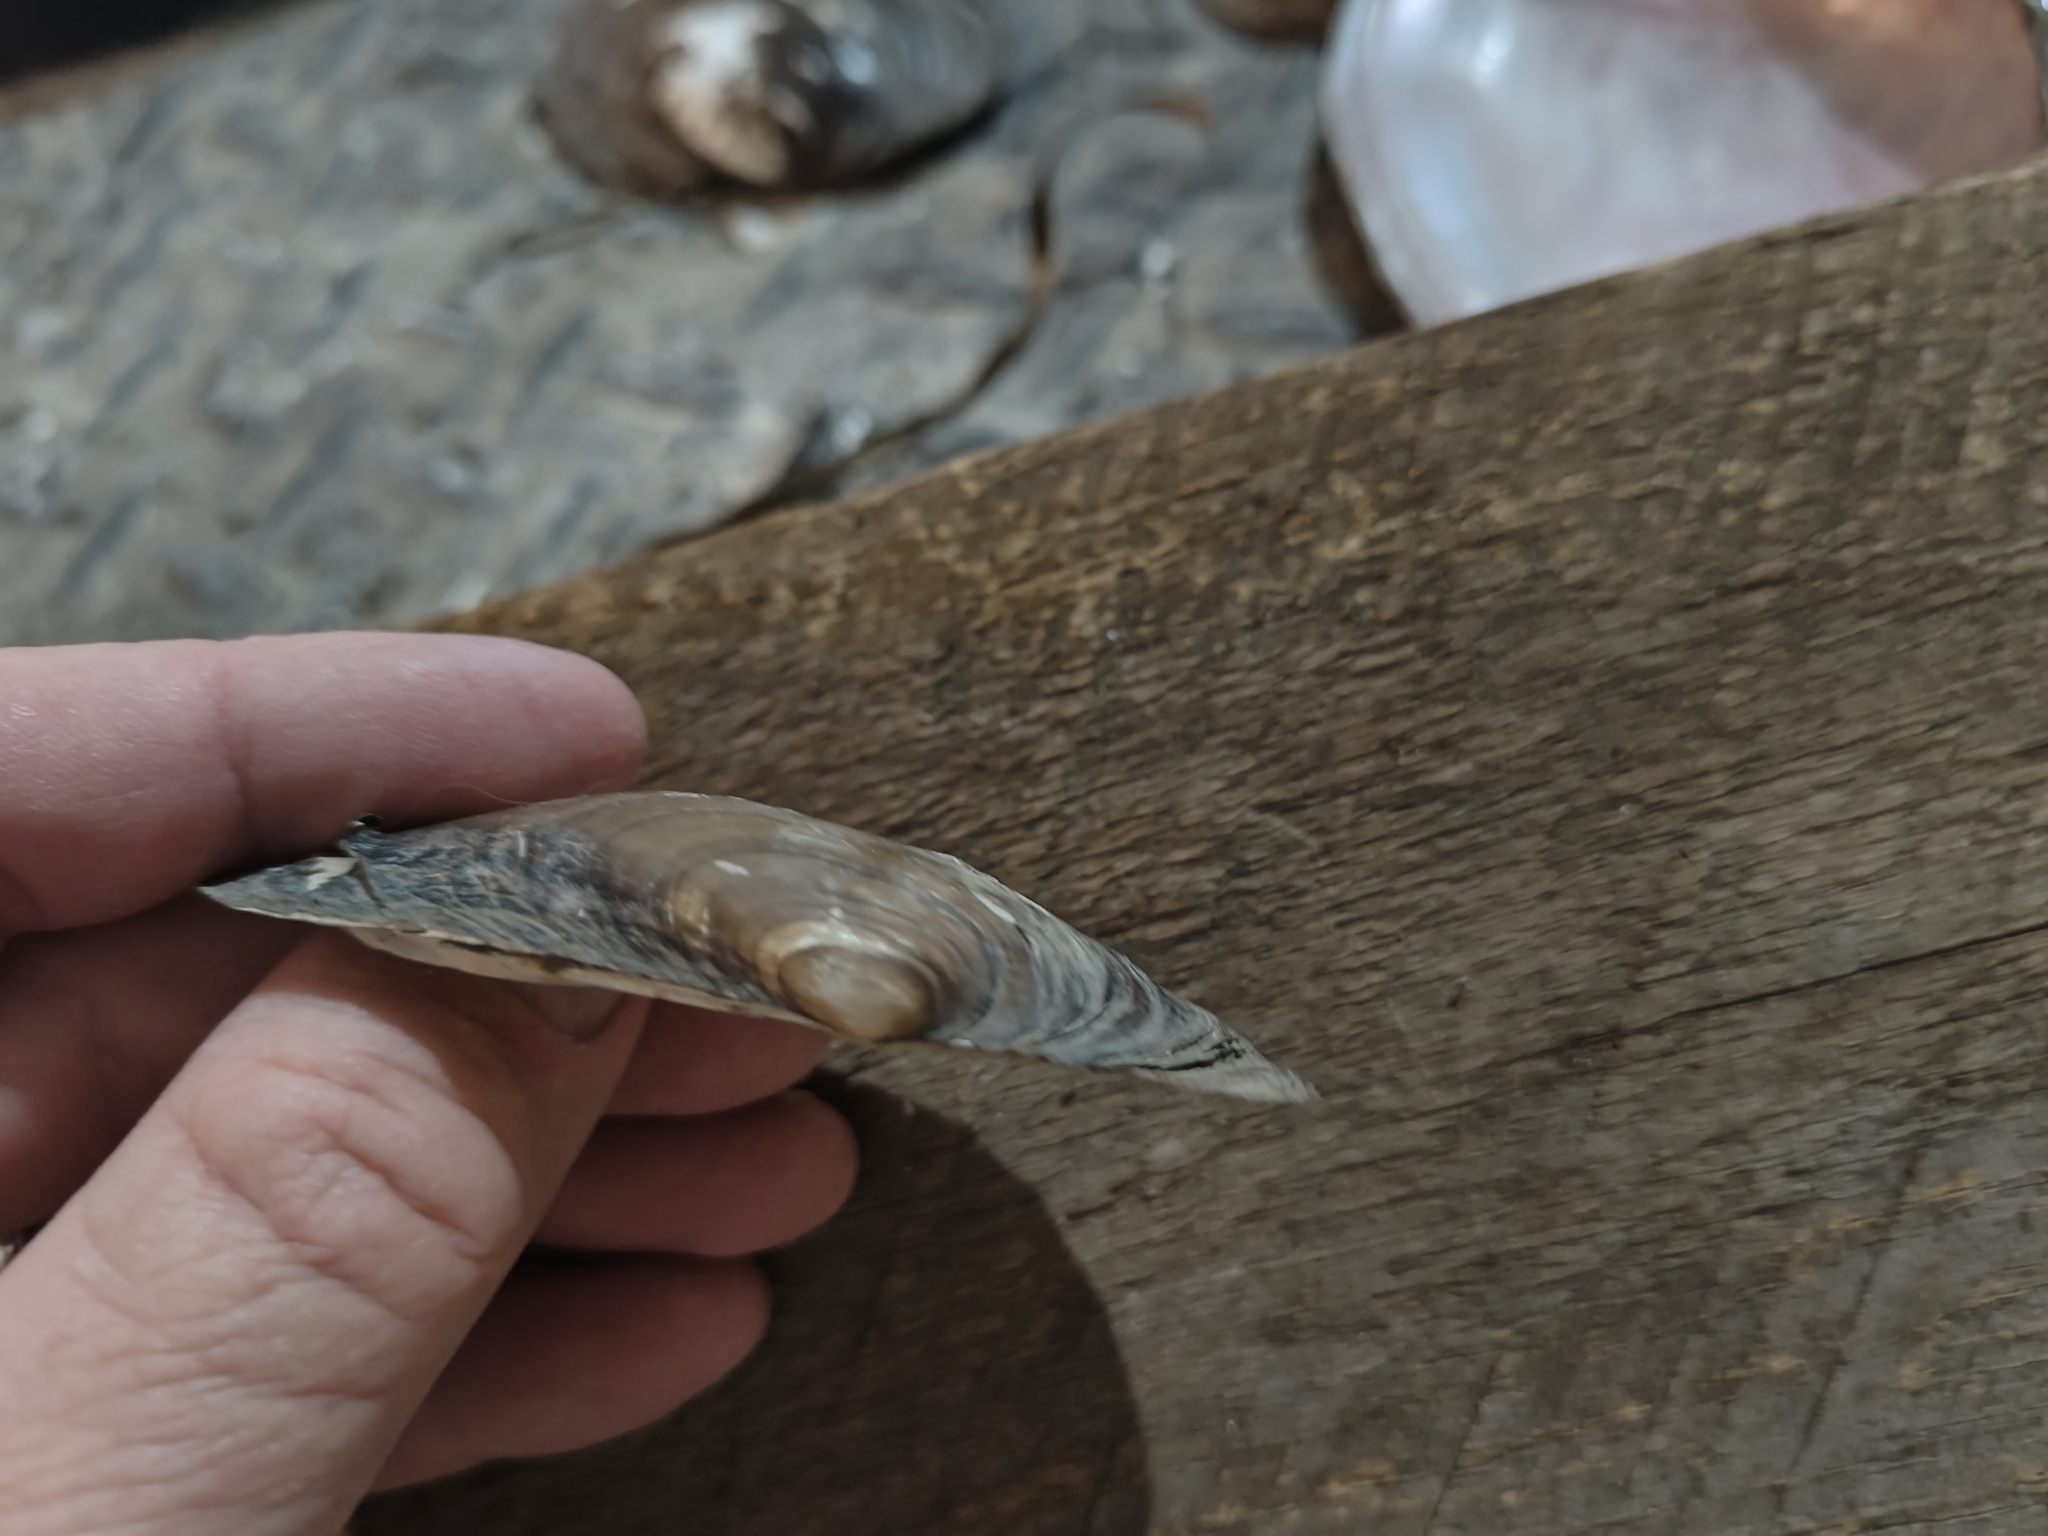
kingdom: Animalia
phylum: Mollusca
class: Bivalvia
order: Unionida
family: Unionidae
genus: Potamilus
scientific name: Potamilus fragilis
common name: Fragile papershell
